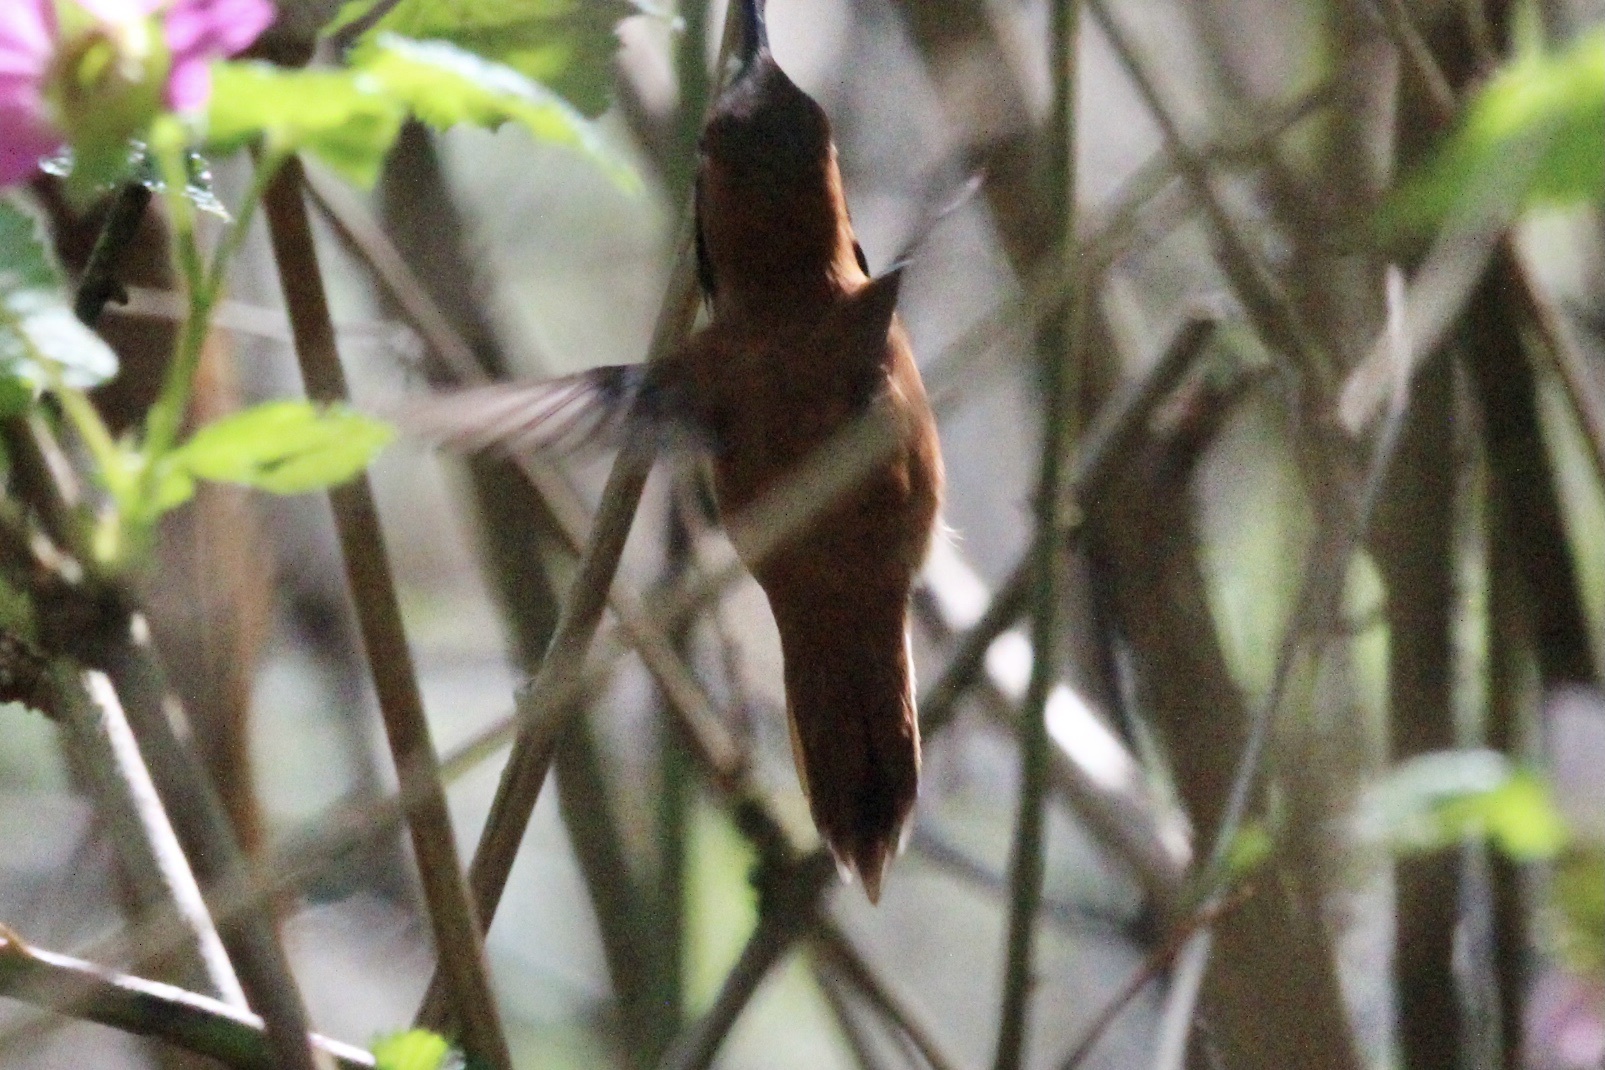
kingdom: Animalia
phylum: Chordata
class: Aves
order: Apodiformes
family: Trochilidae
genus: Selasphorus
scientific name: Selasphorus rufus
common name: Rufous hummingbird
